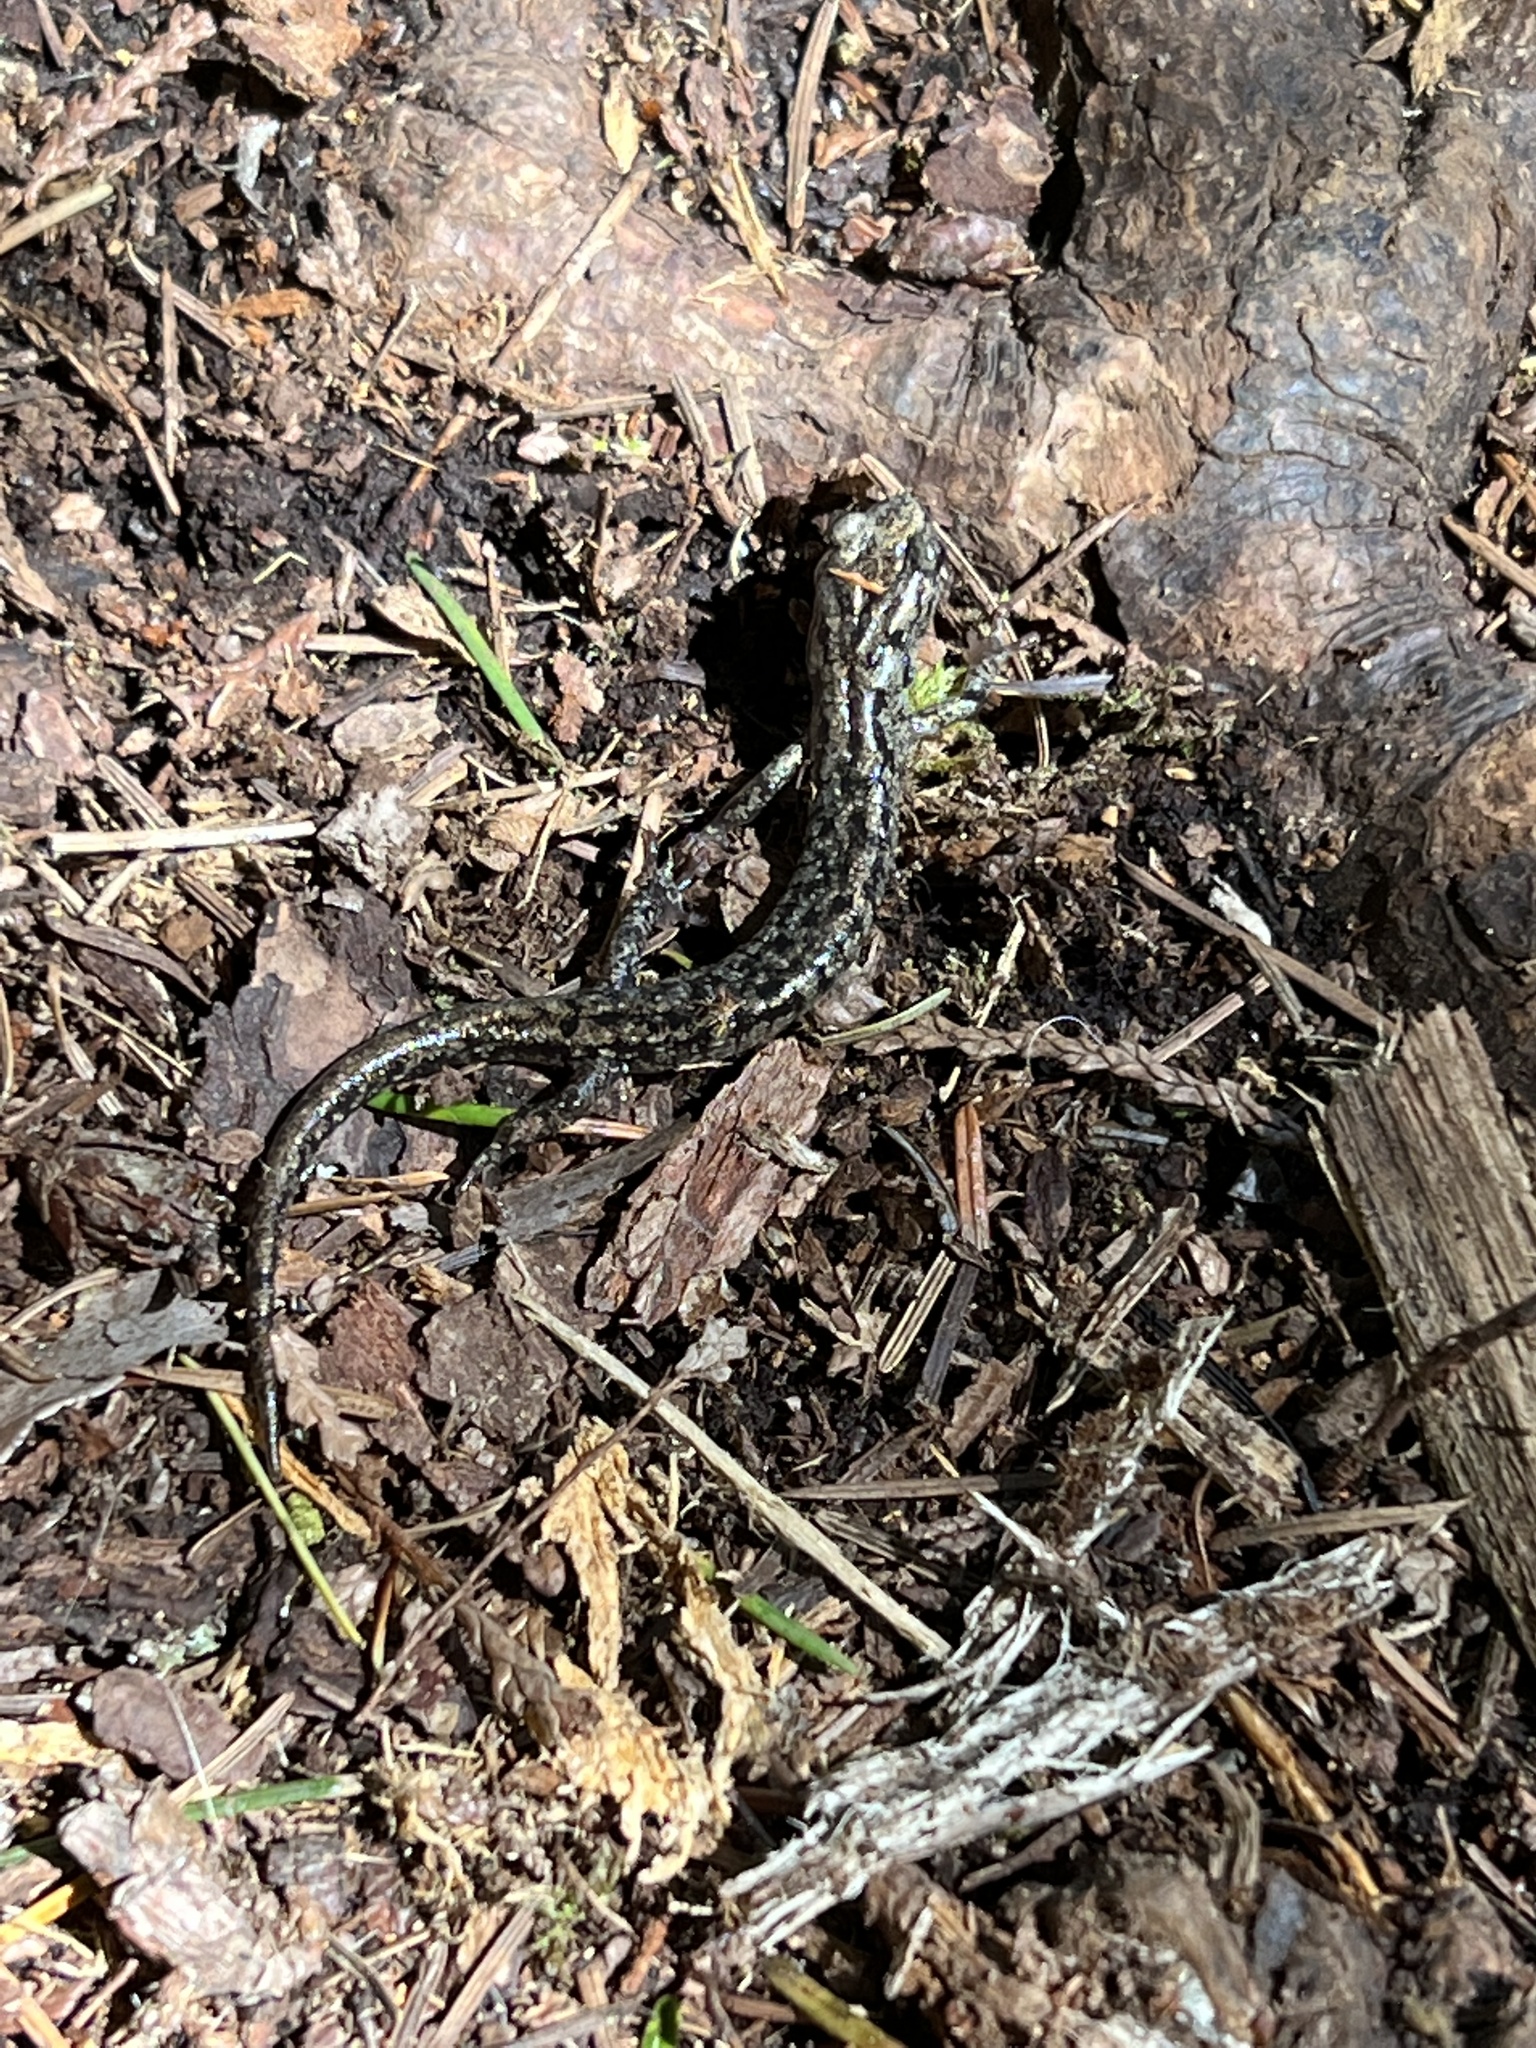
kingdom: Animalia
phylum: Chordata
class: Amphibia
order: Caudata
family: Plethodontidae
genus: Aneides
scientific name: Aneides vagrans
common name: Wandering salamander
